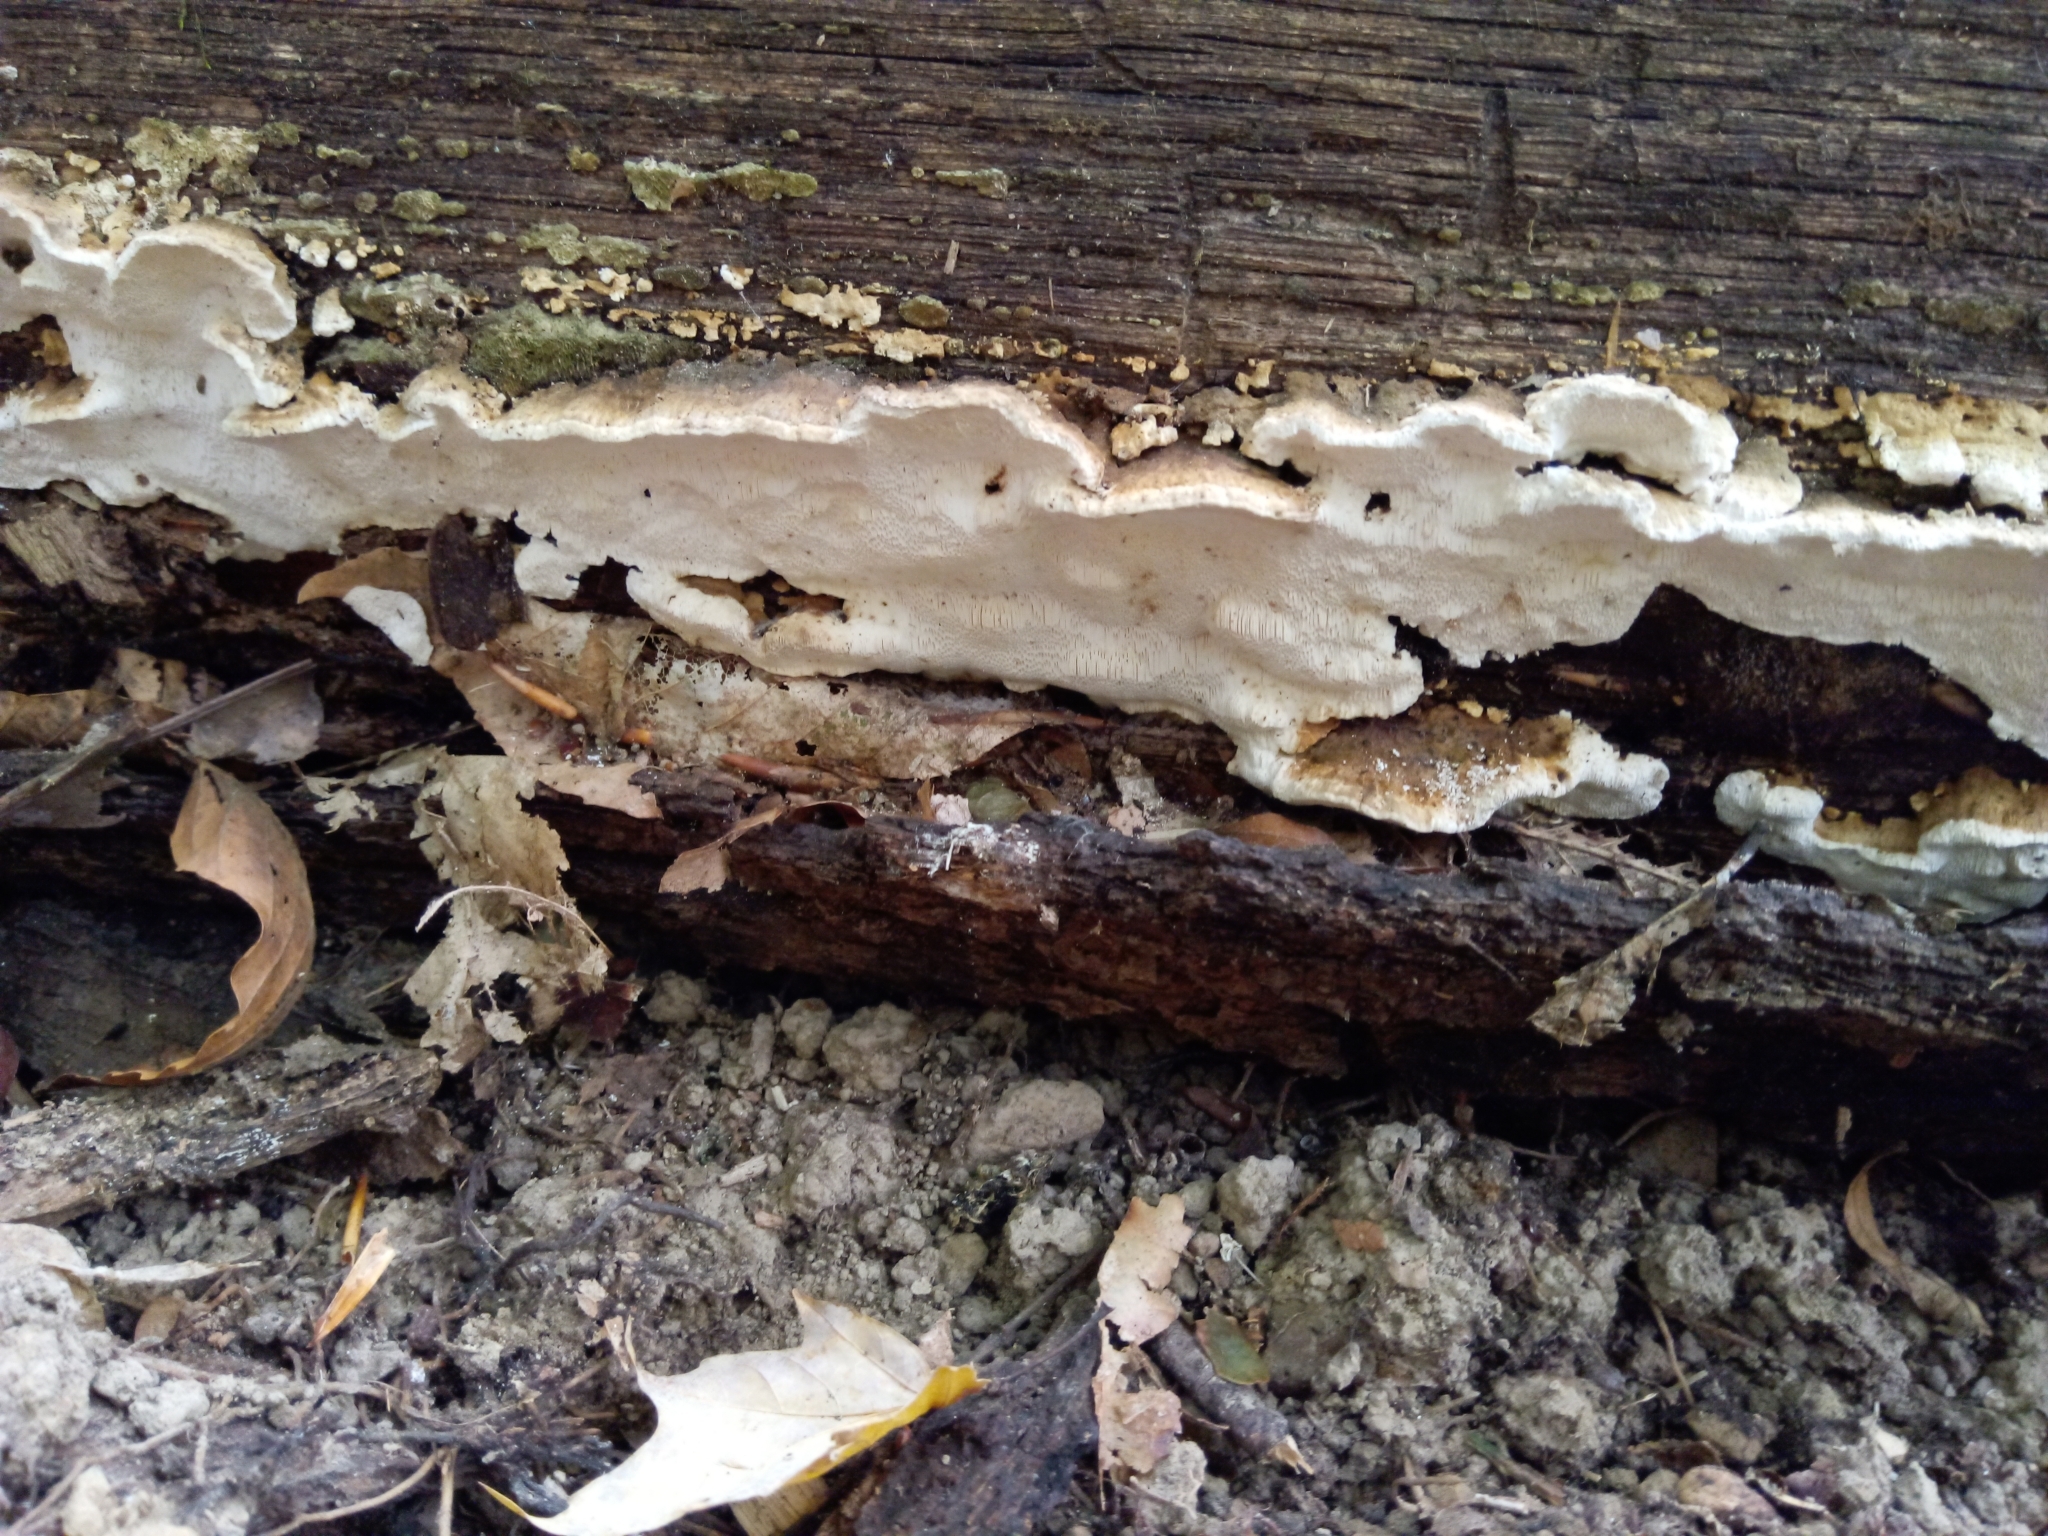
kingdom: Fungi
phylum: Basidiomycota
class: Agaricomycetes
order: Polyporales
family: Fomitopsidaceae
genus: Fomitopsis
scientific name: Fomitopsis
